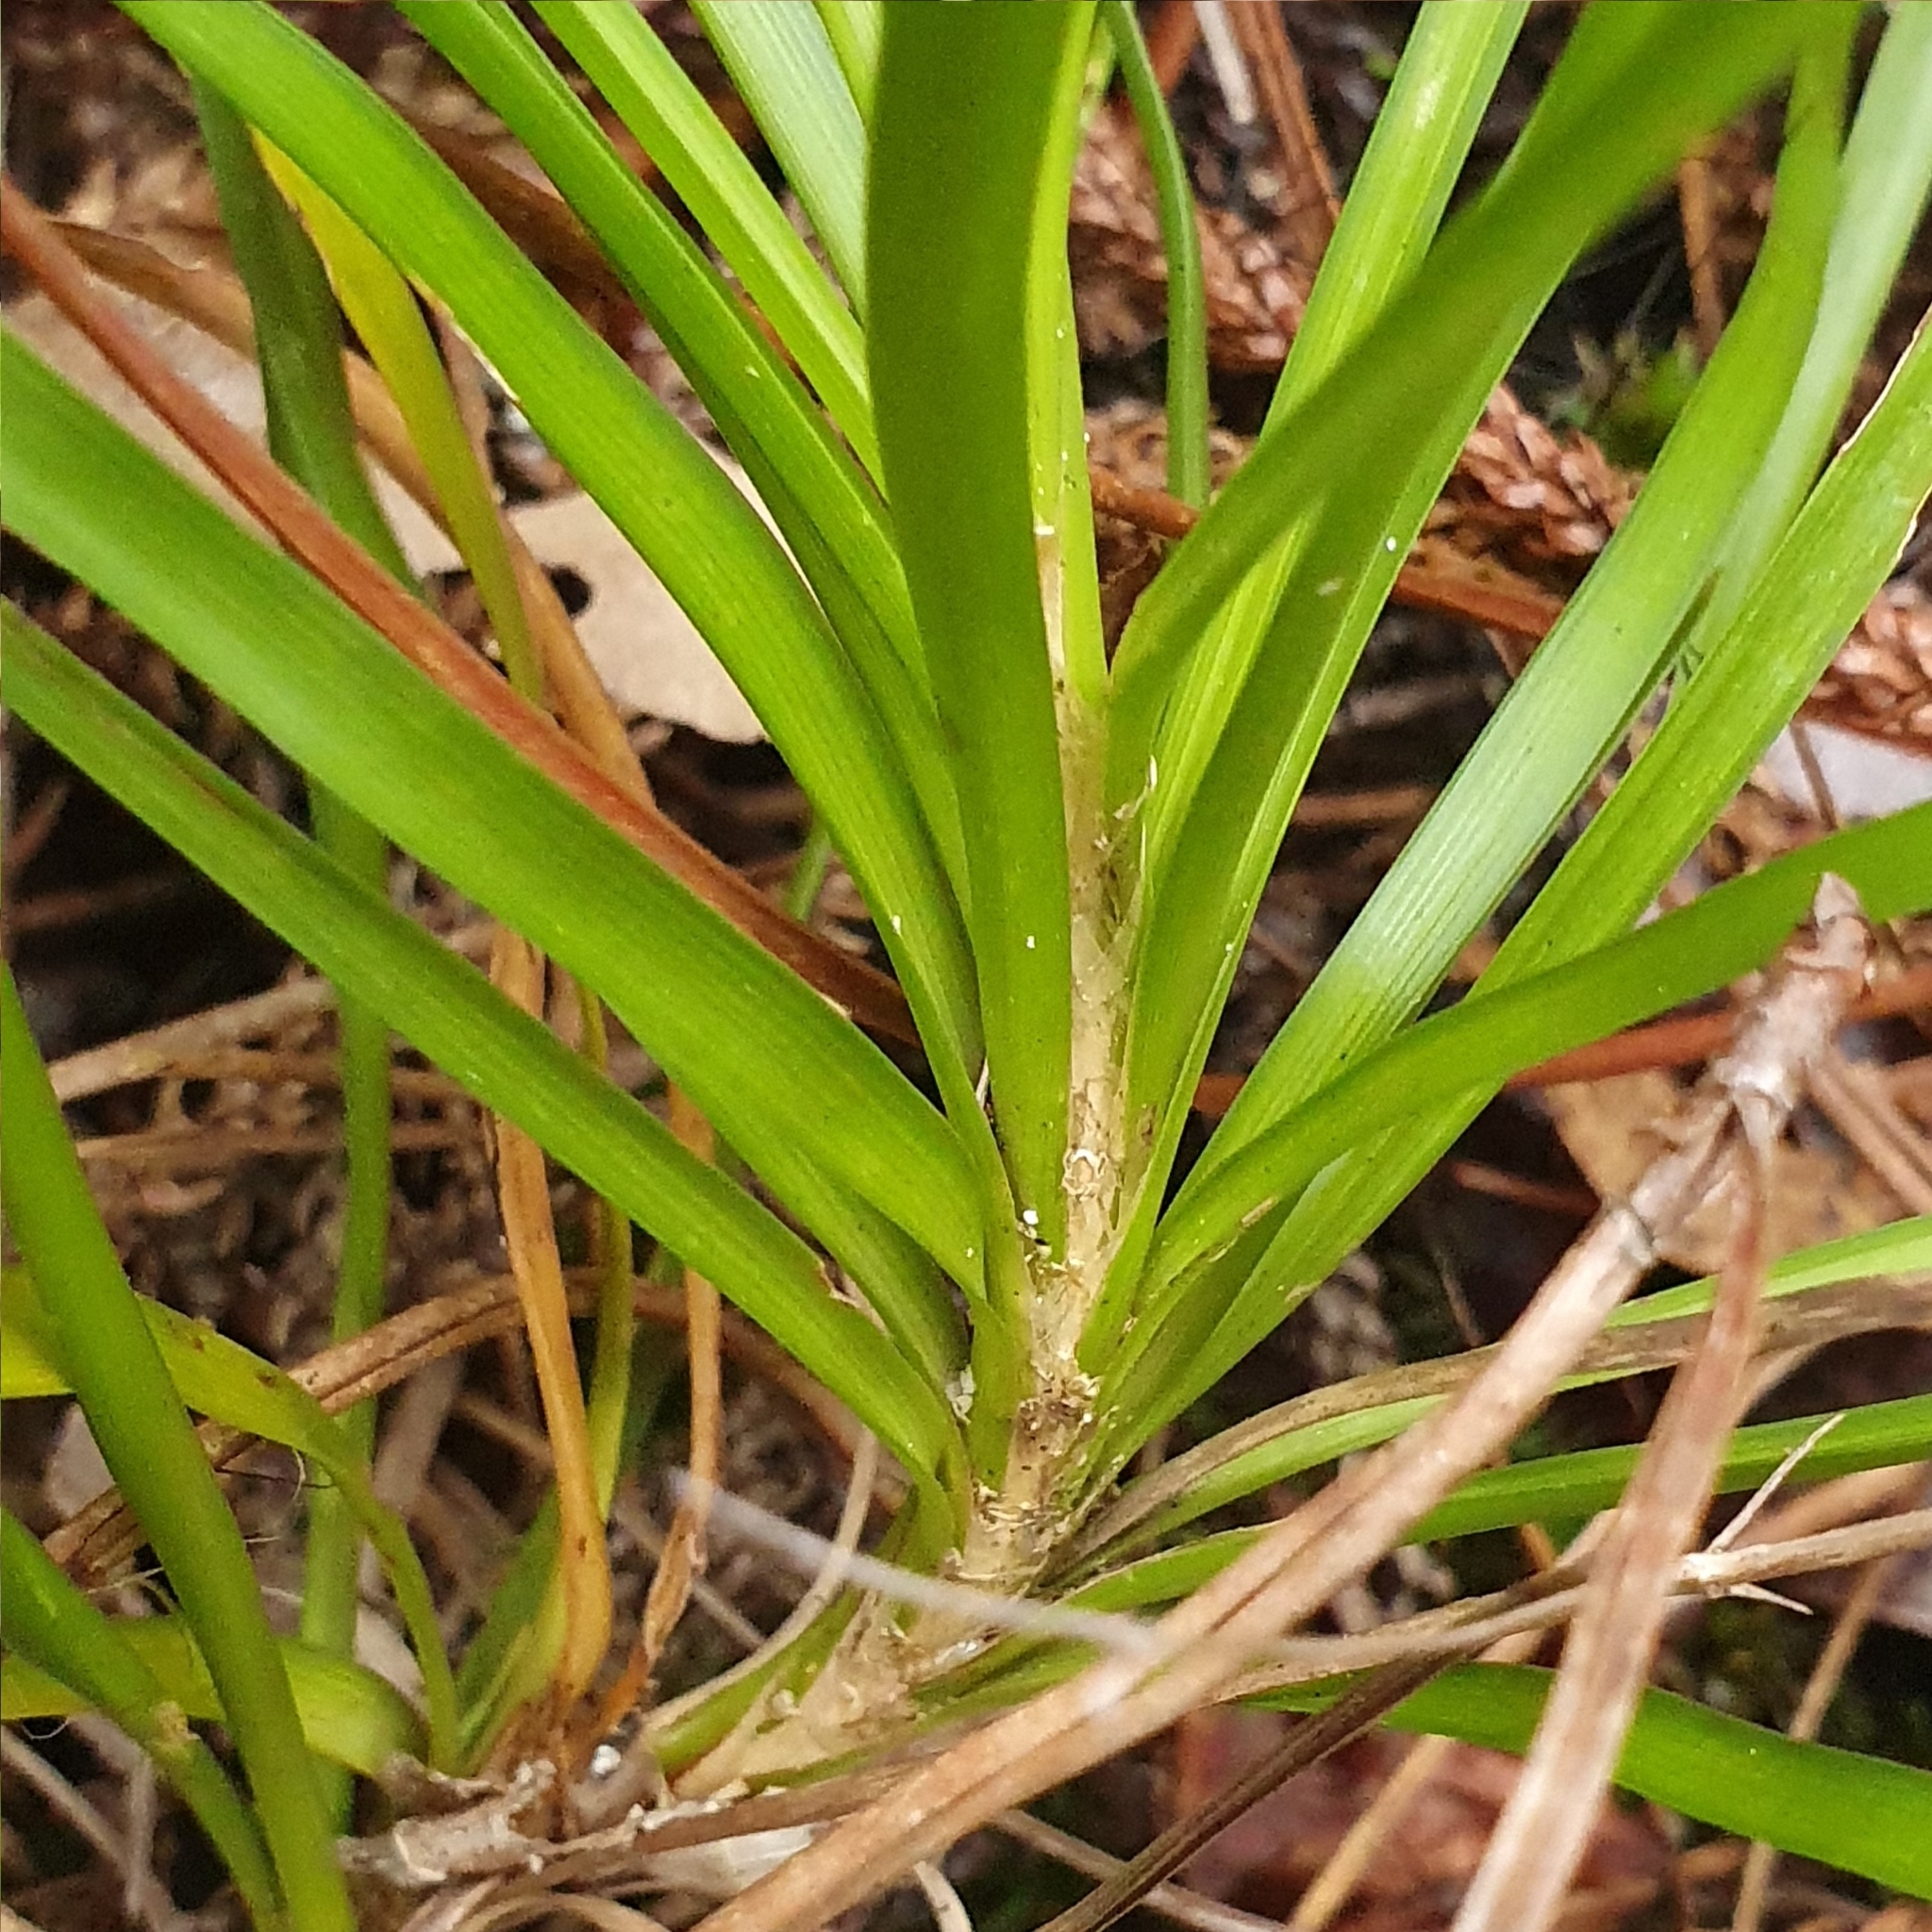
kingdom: Plantae
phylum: Tracheophyta
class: Liliopsida
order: Asparagales
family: Asparagaceae
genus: Lomandra
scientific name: Lomandra laxa
